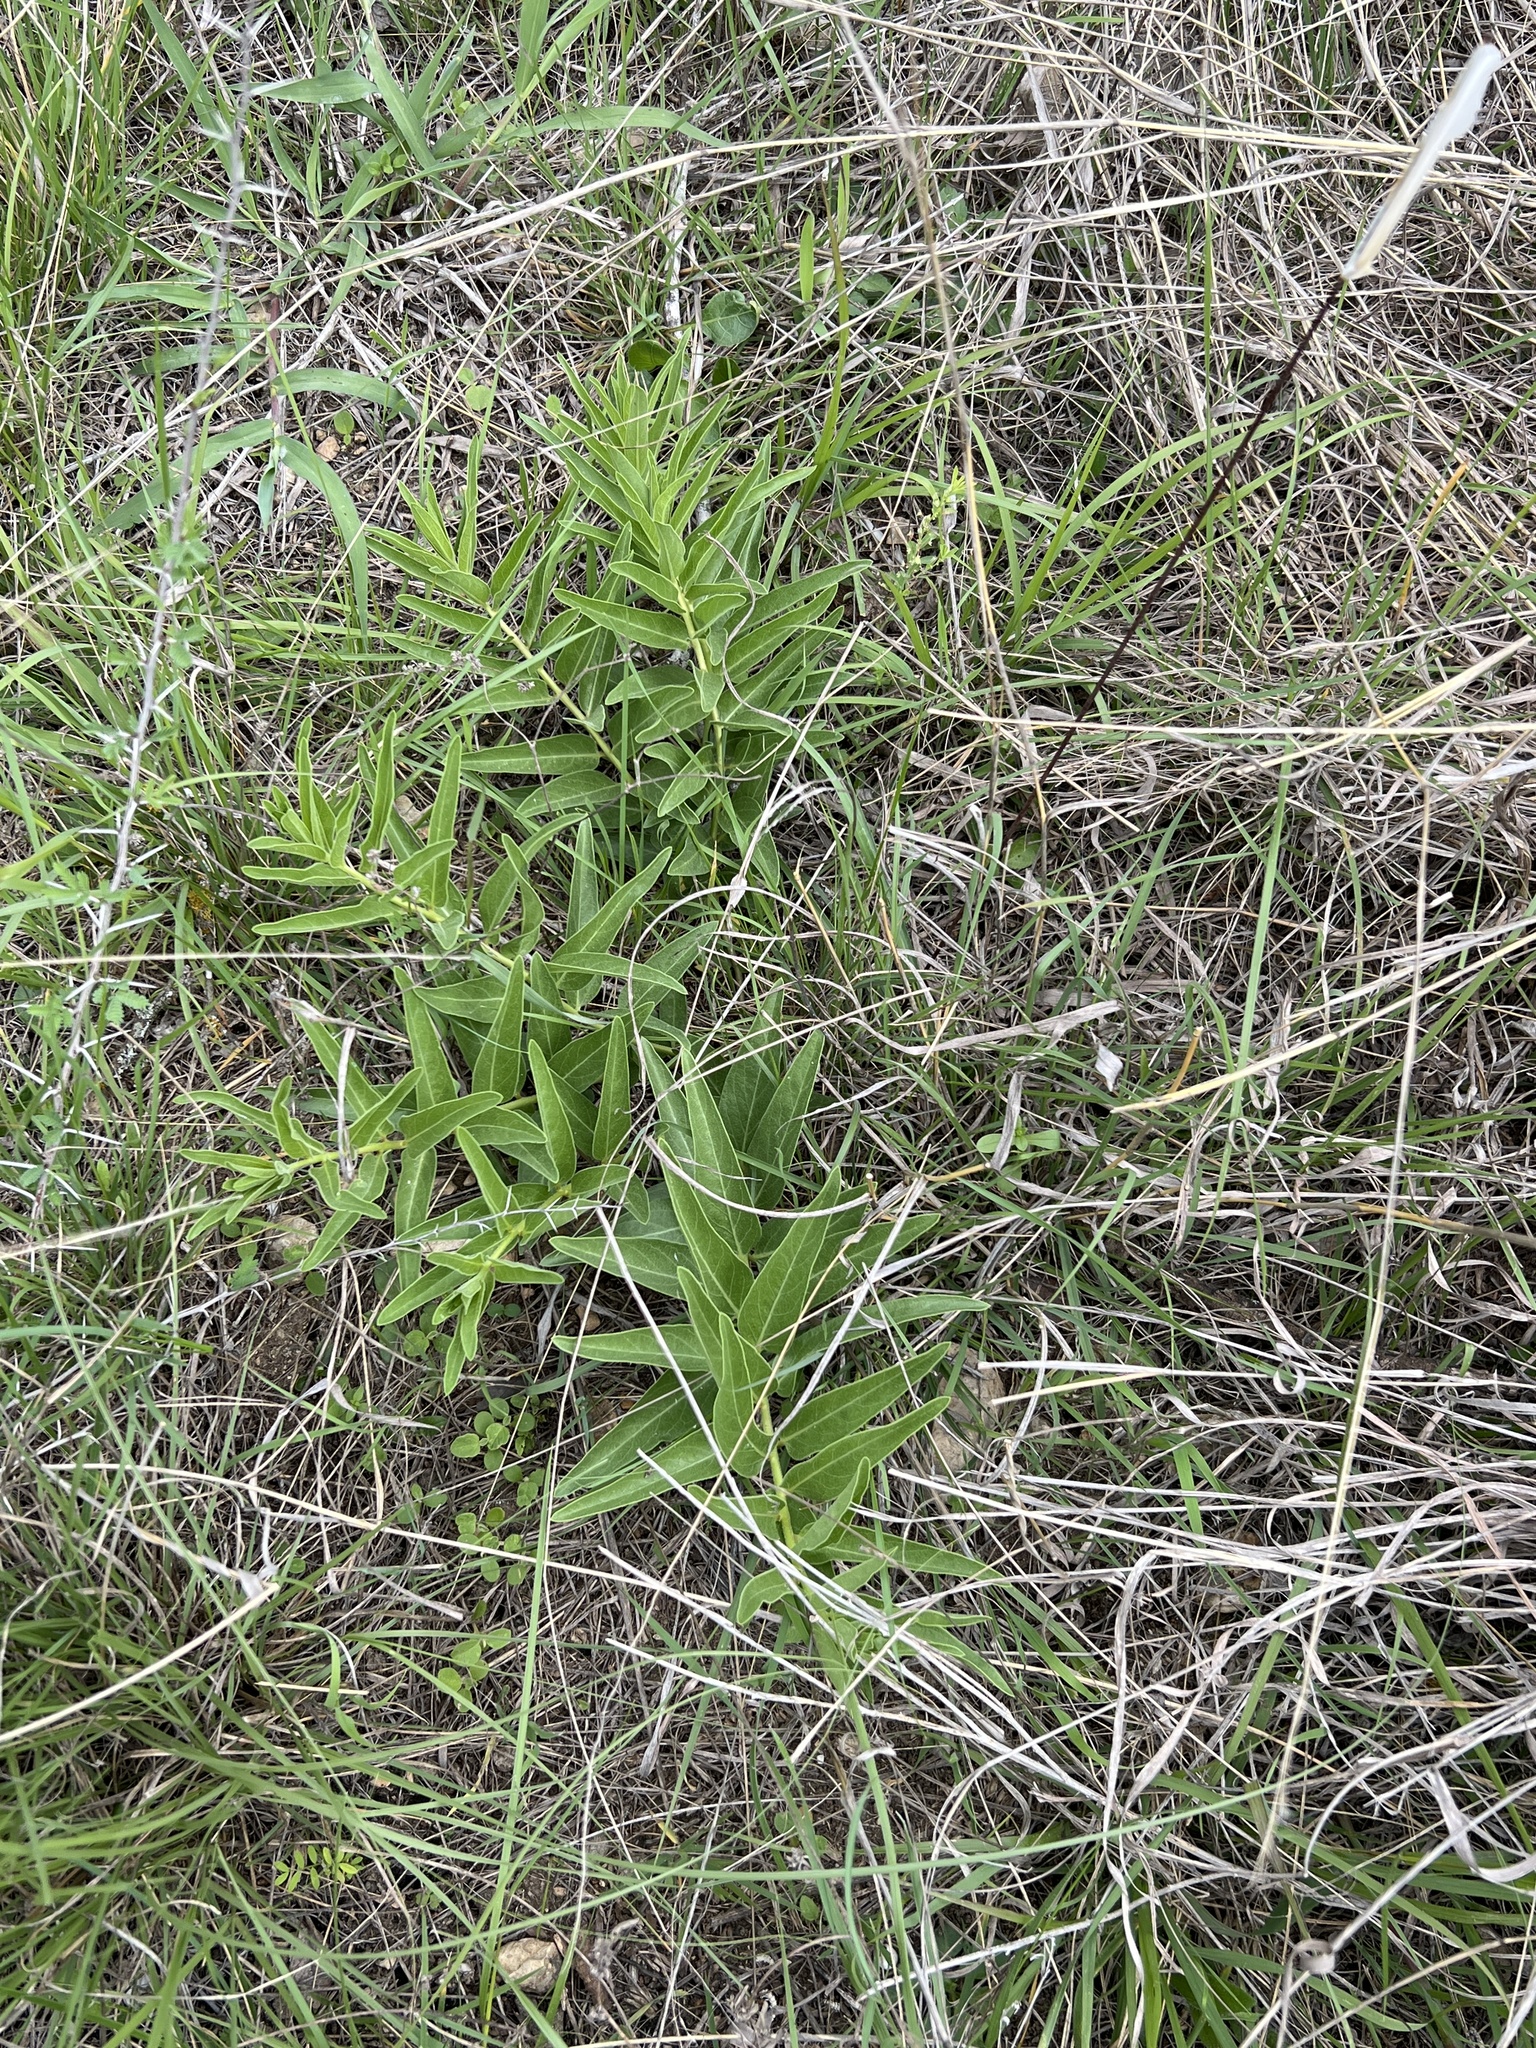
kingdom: Plantae
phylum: Tracheophyta
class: Magnoliopsida
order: Gentianales
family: Apocynaceae
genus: Asclepias
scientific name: Asclepias asperula
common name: Antelope horns
